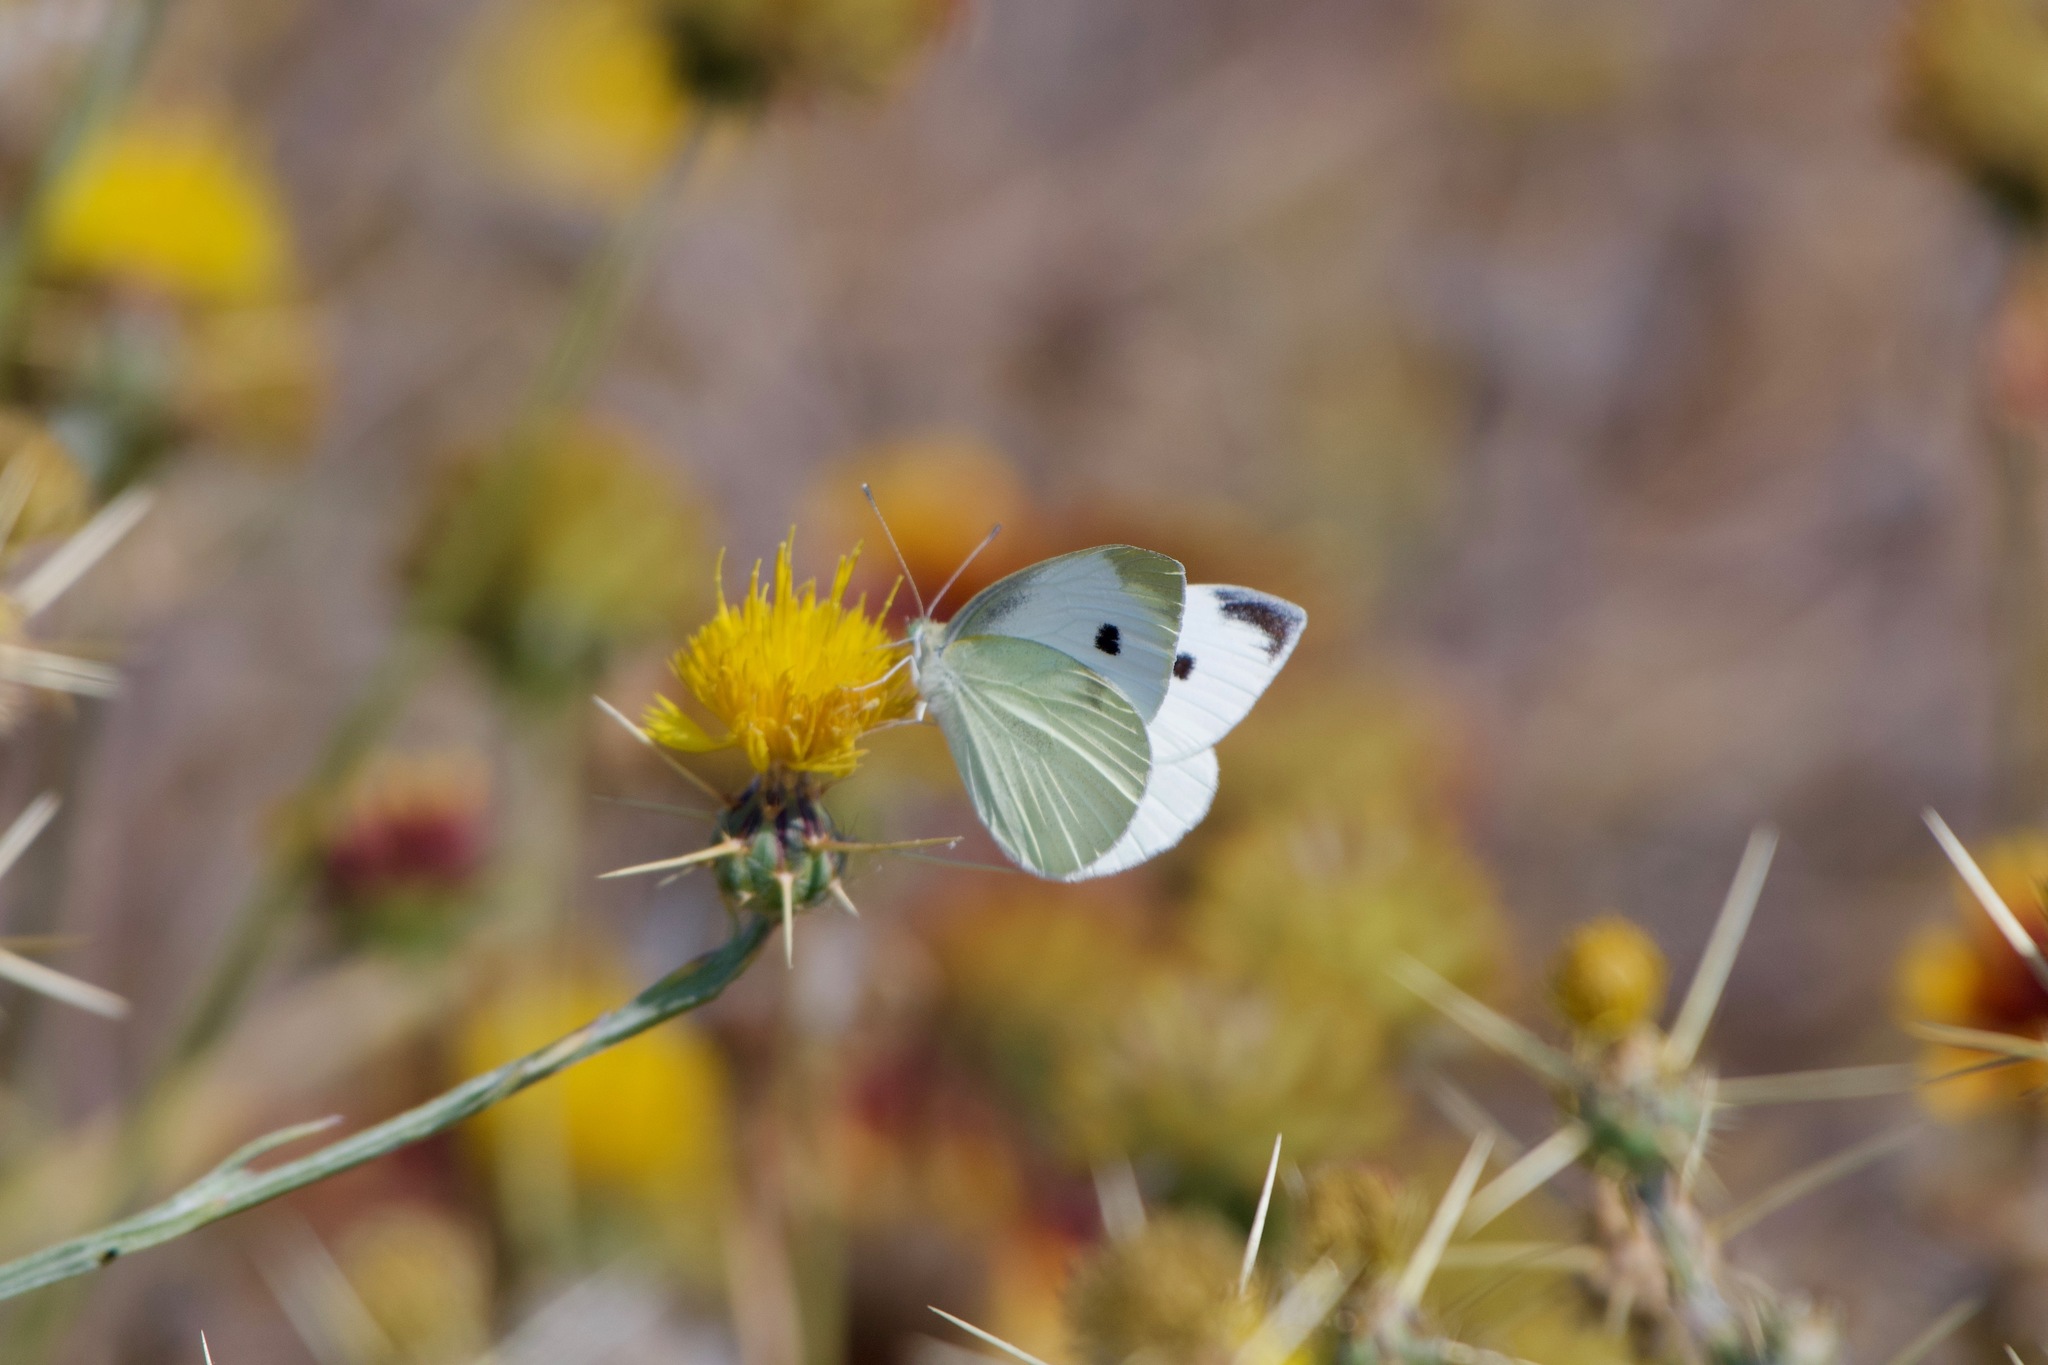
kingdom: Animalia
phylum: Arthropoda
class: Insecta
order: Lepidoptera
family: Pieridae
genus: Pieris
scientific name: Pieris rapae
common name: Small white
